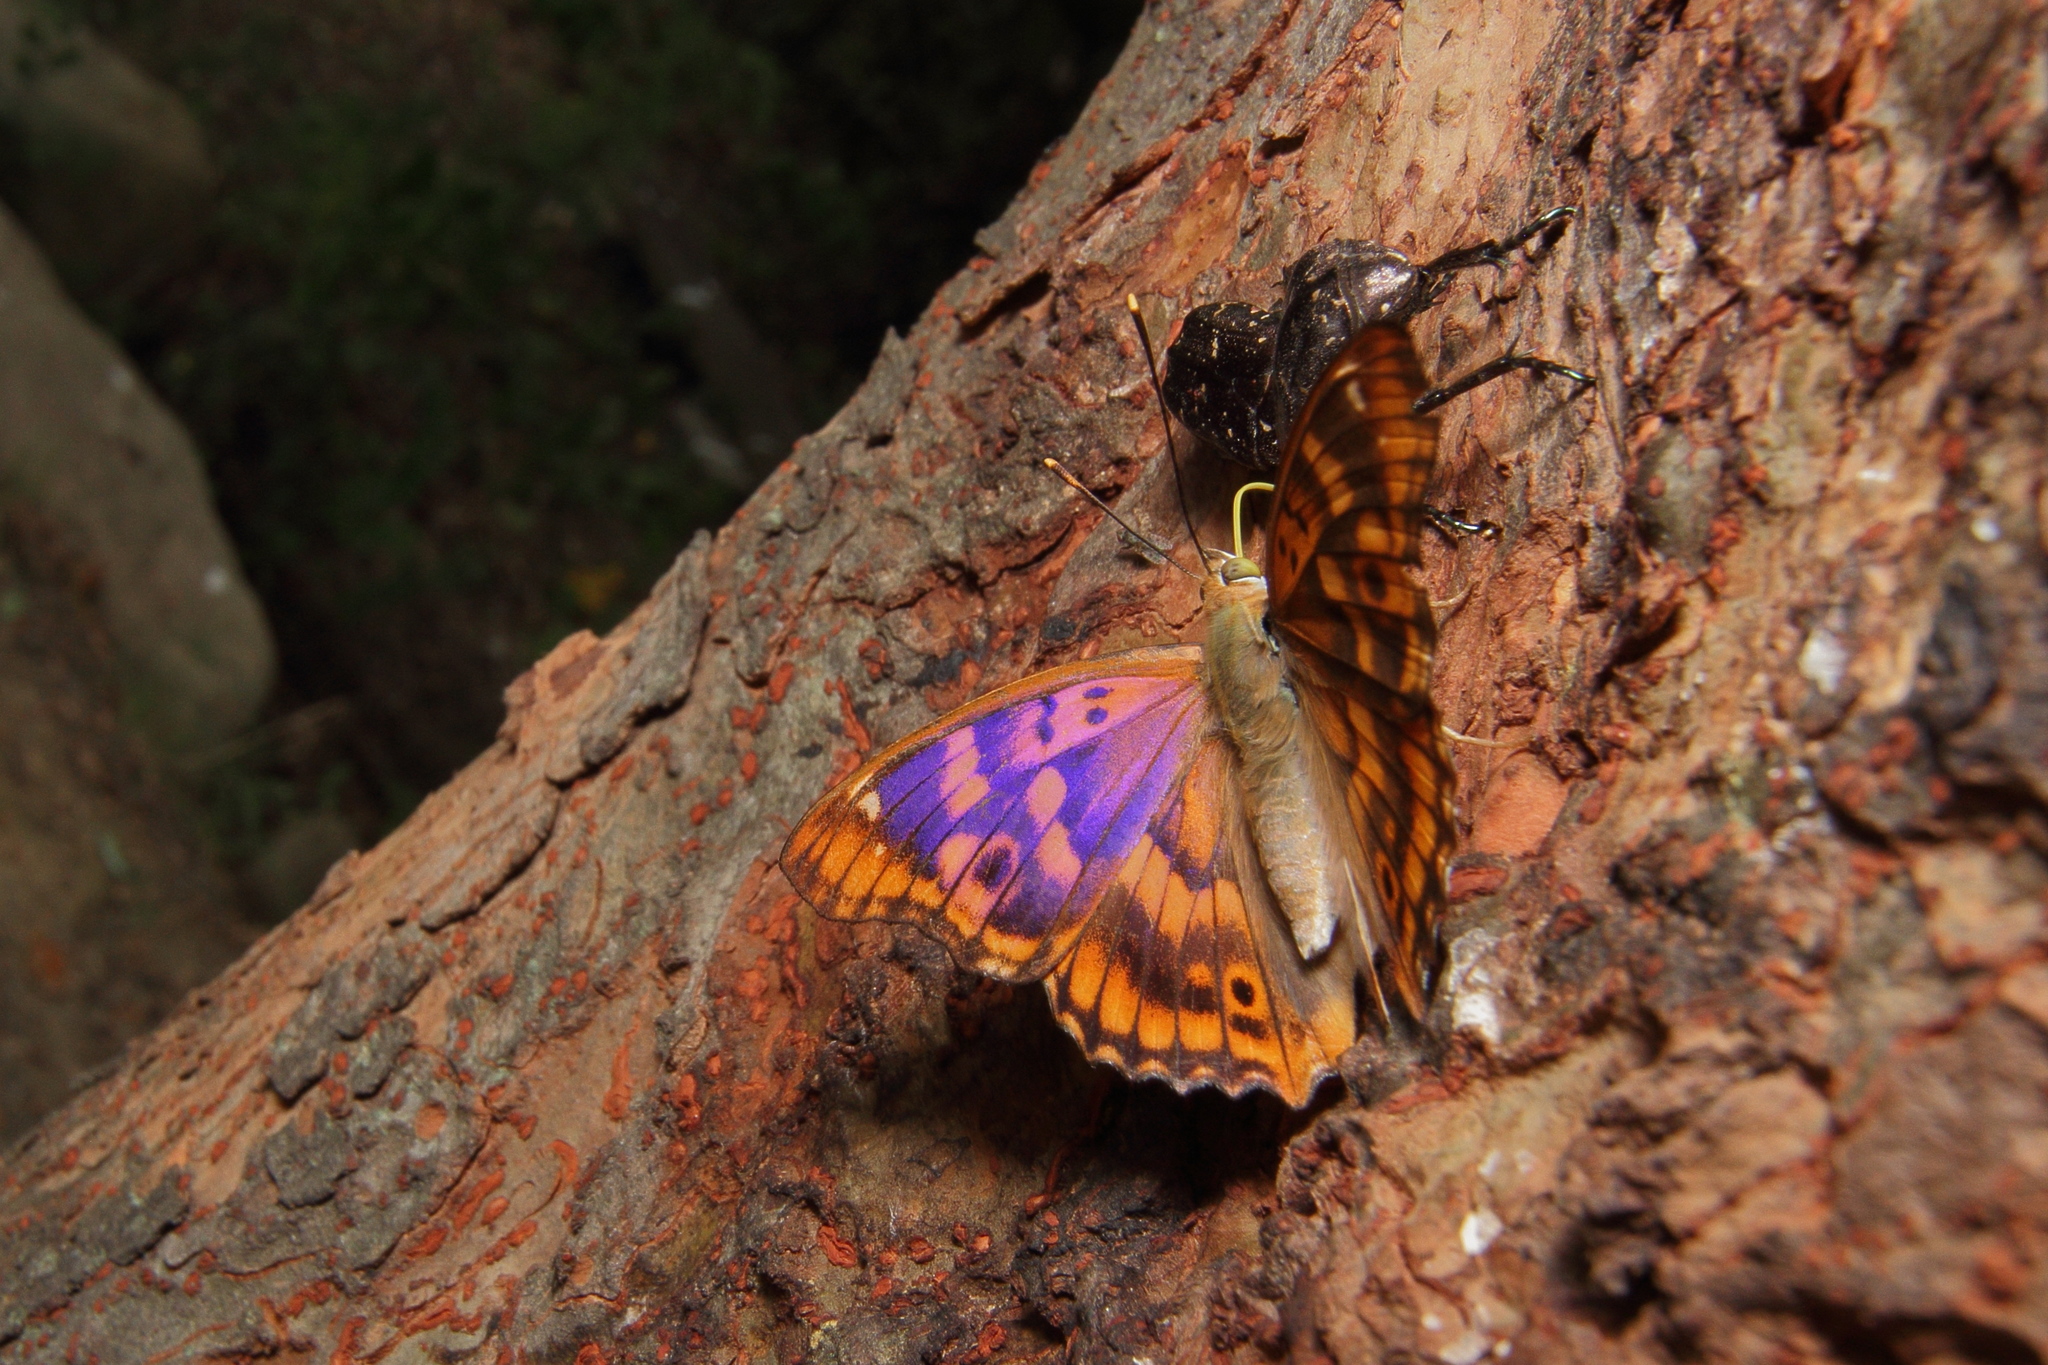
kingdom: Animalia
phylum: Arthropoda
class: Insecta
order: Lepidoptera
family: Nymphalidae
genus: Apatura
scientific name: Apatura ilia
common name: Lesser purple emperor
